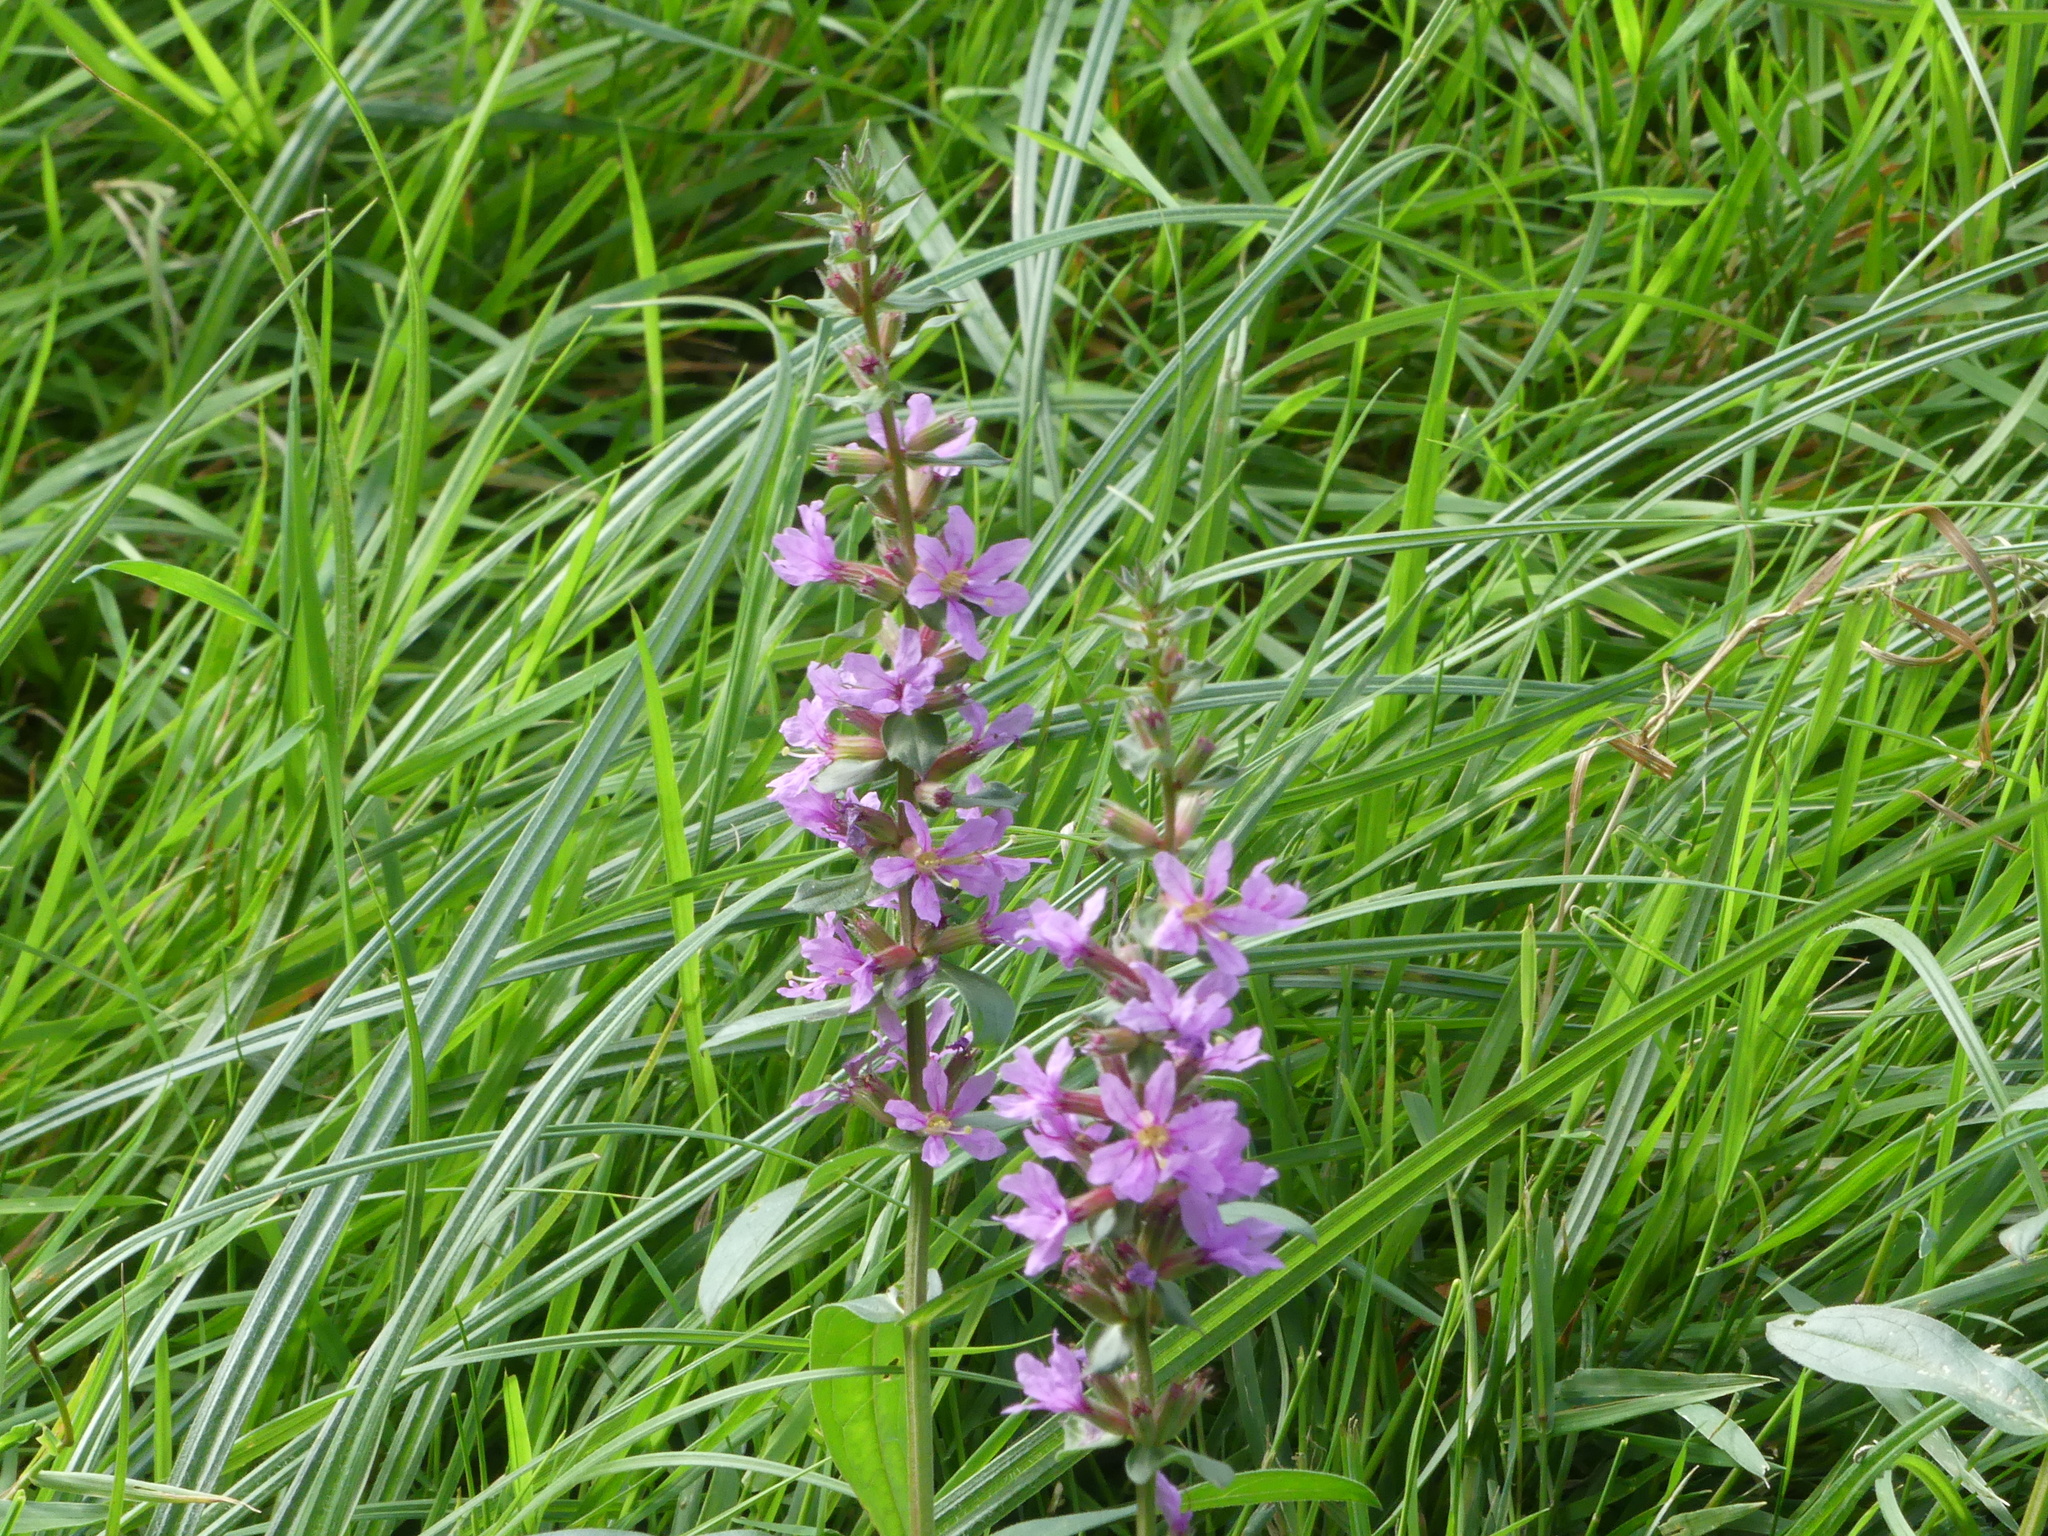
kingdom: Plantae
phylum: Tracheophyta
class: Magnoliopsida
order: Myrtales
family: Lythraceae
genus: Lythrum
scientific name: Lythrum salicaria
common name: Purple loosestrife
